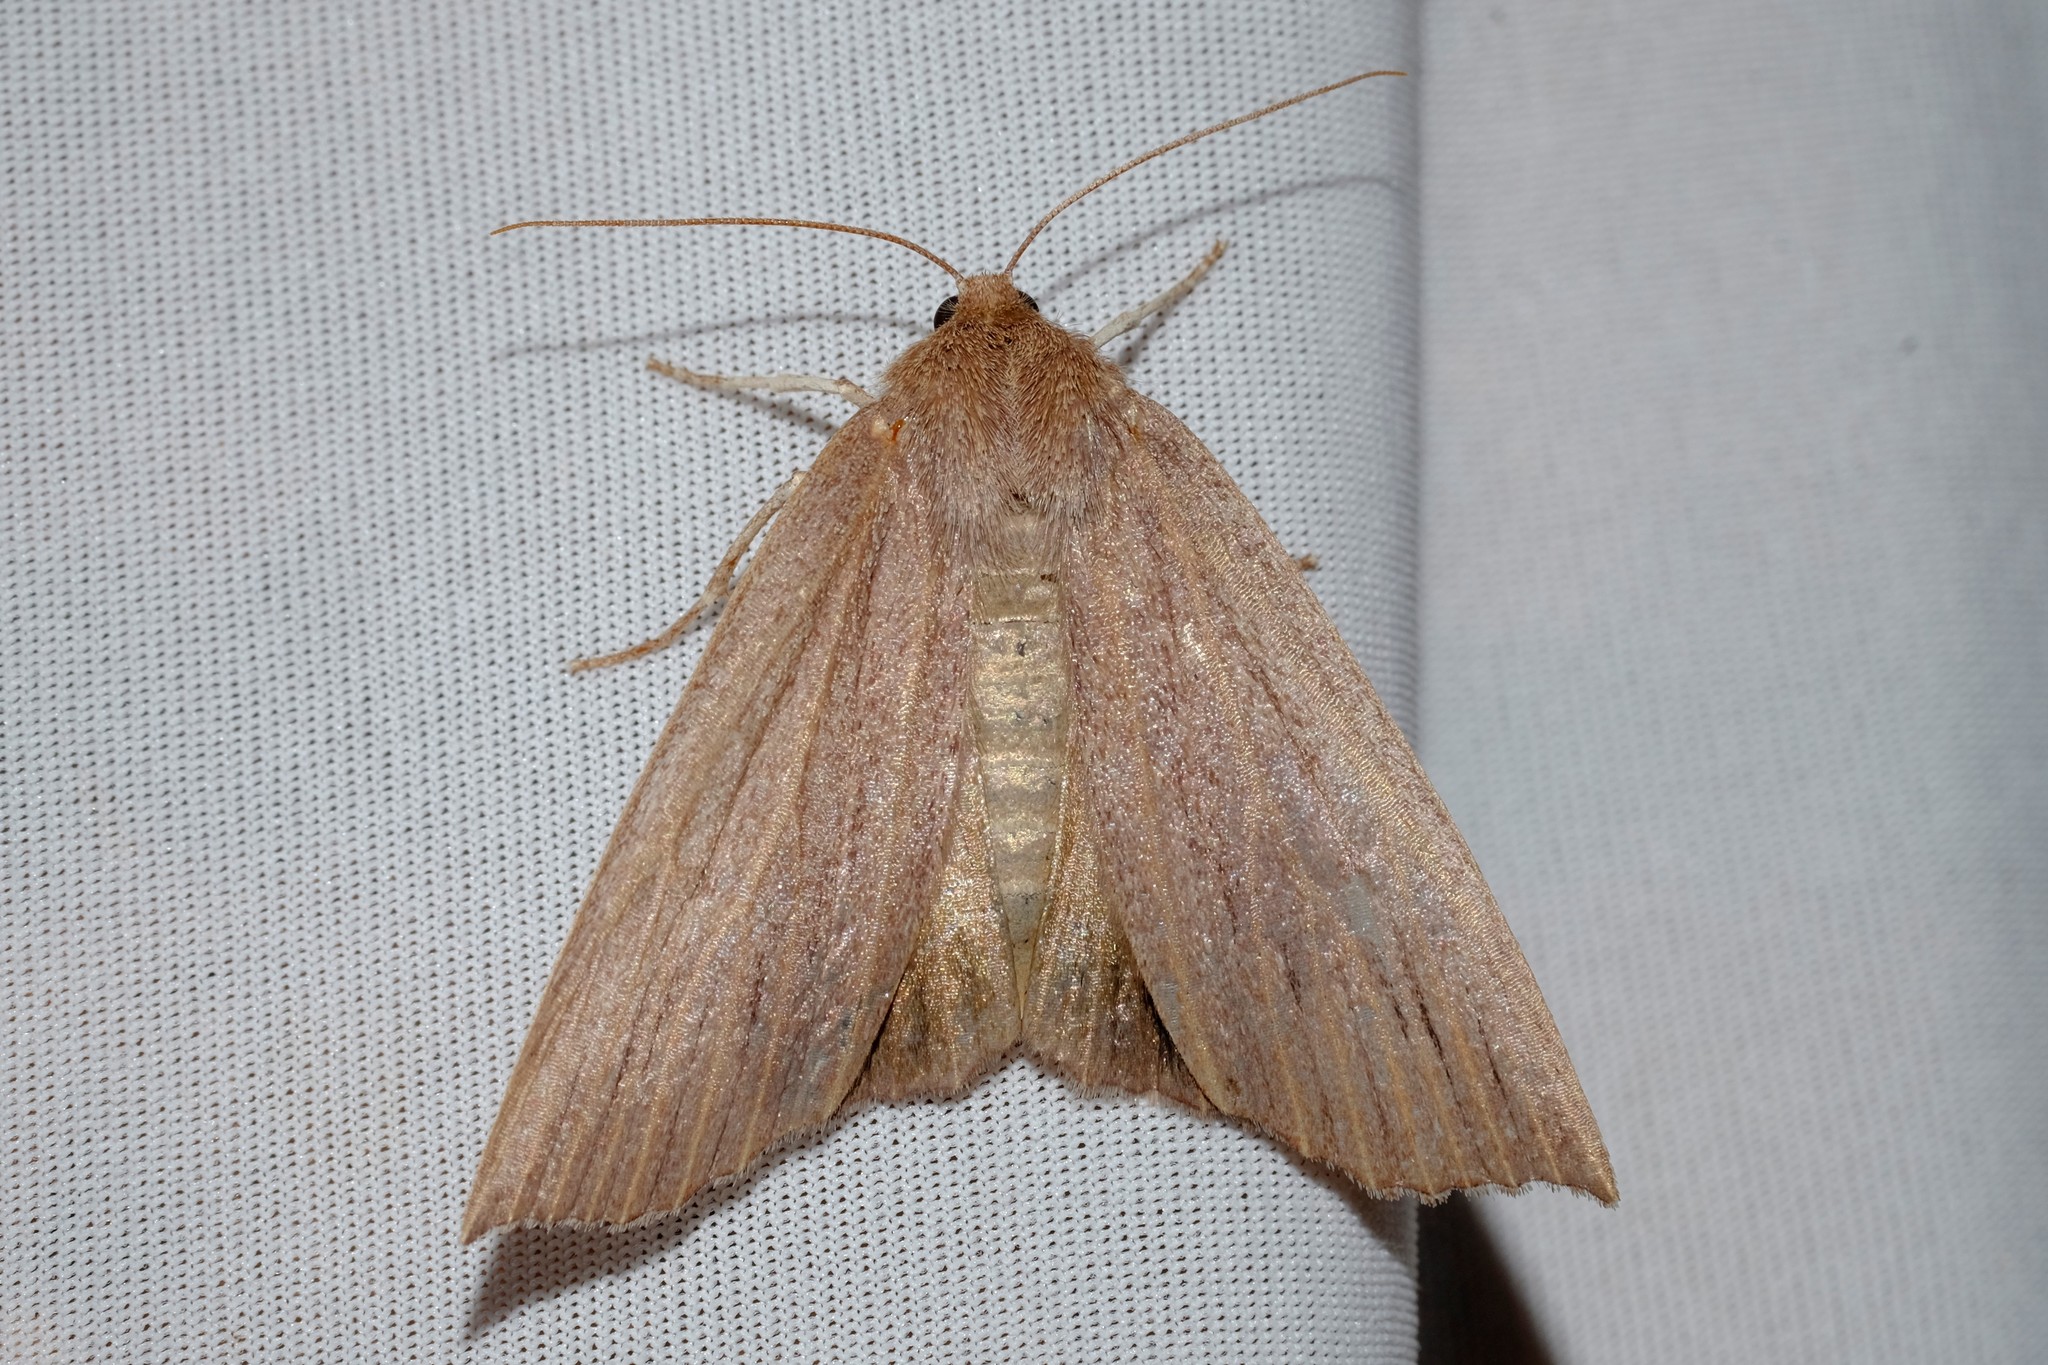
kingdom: Animalia
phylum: Arthropoda
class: Insecta
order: Lepidoptera
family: Geometridae
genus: Palleopa
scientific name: Palleopa innotata
